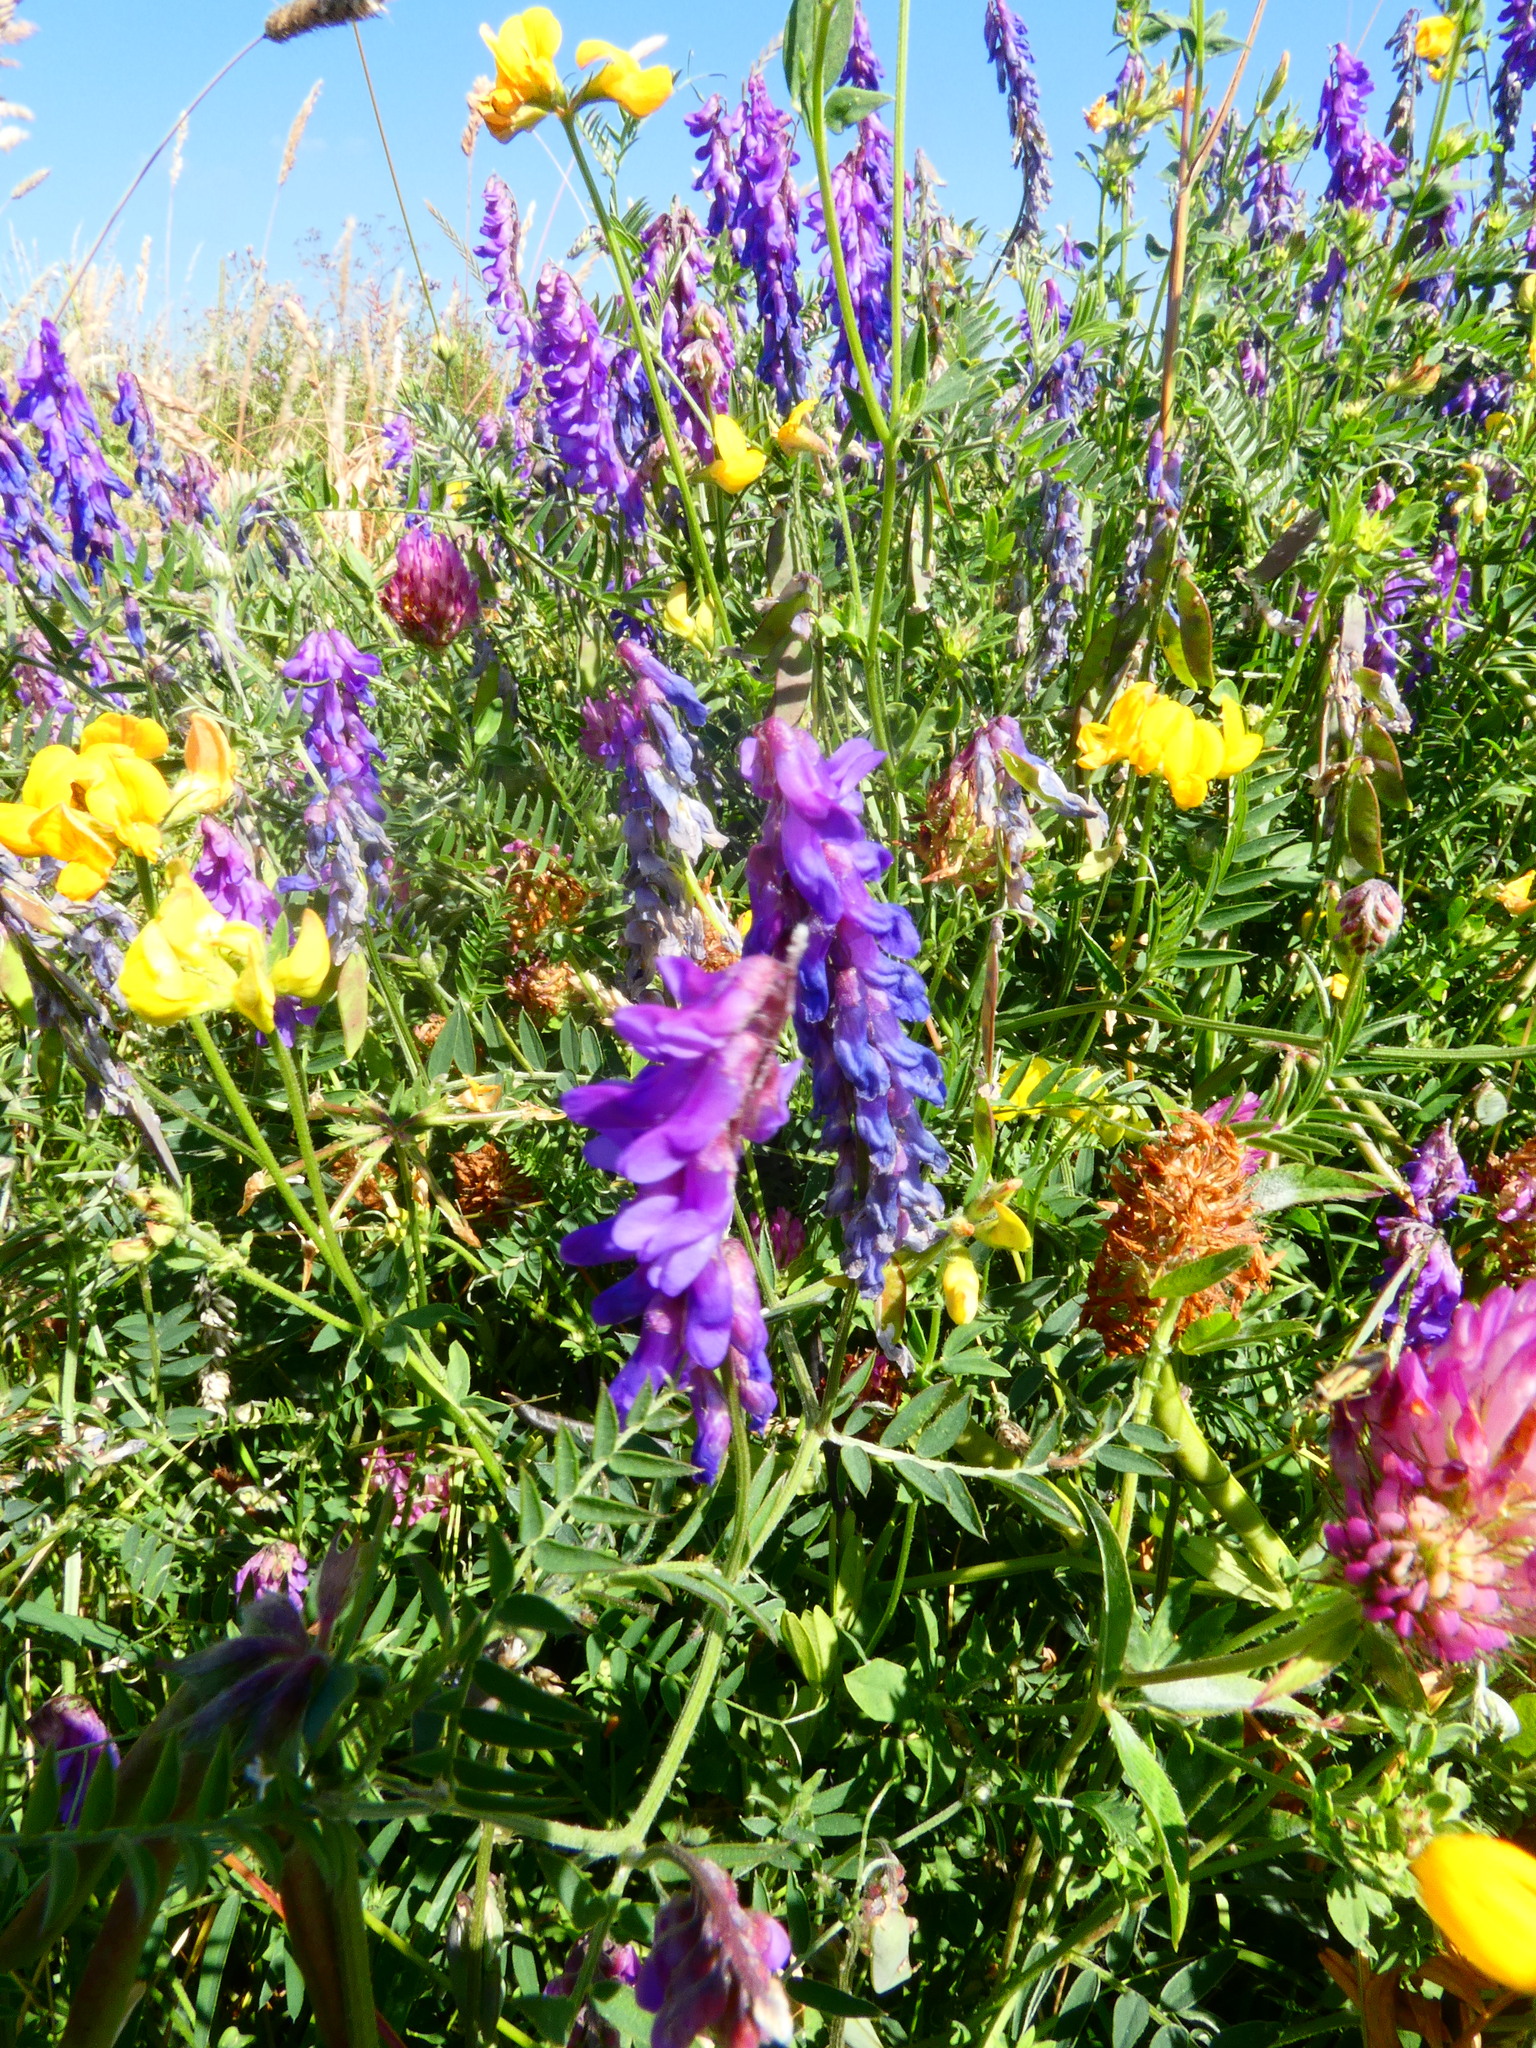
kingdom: Plantae
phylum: Tracheophyta
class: Magnoliopsida
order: Fabales
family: Fabaceae
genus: Vicia
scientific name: Vicia cracca
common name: Bird vetch
